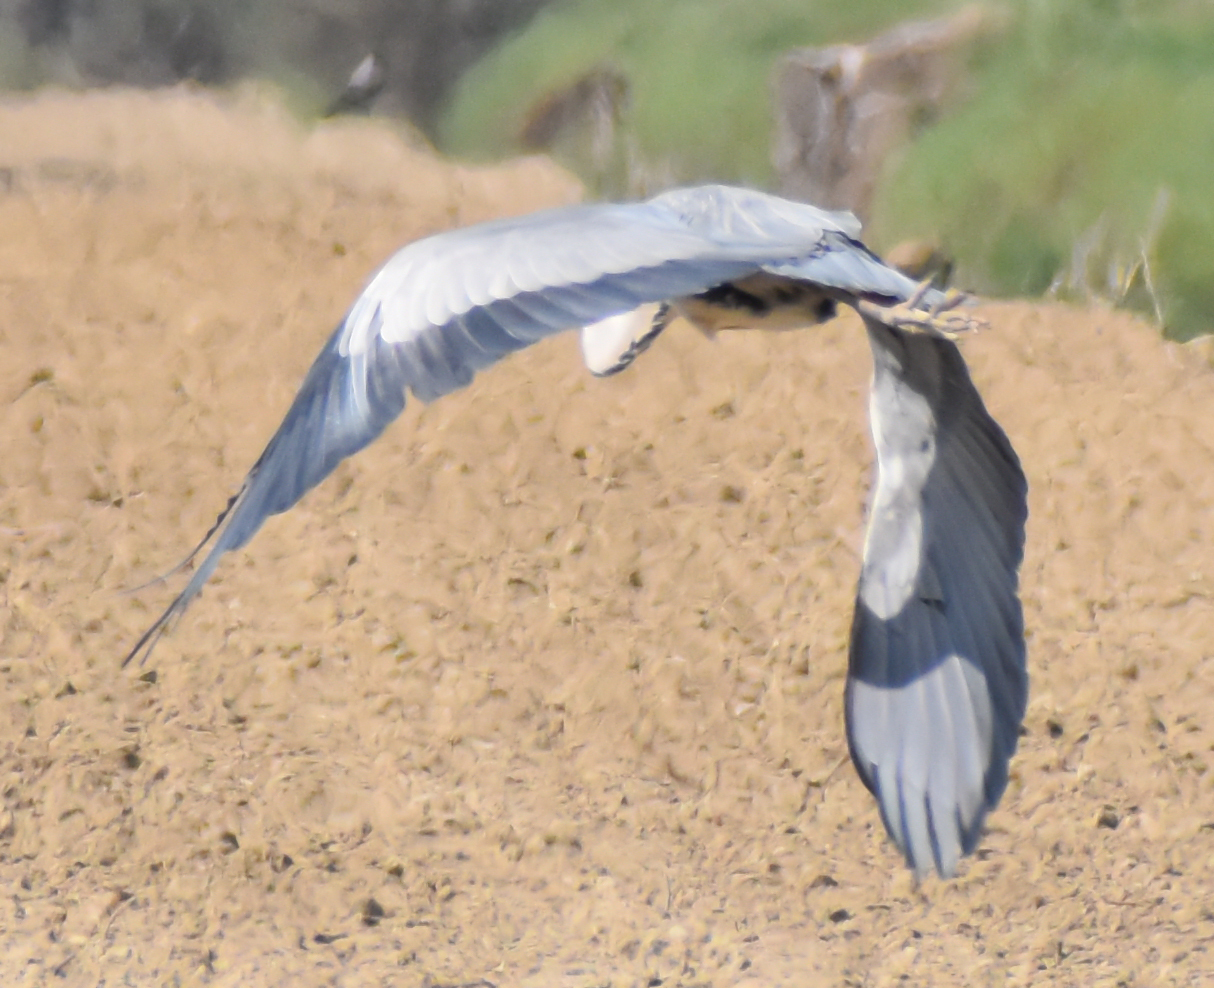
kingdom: Animalia
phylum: Chordata
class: Aves
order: Pelecaniformes
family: Ardeidae
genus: Ardea
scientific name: Ardea cinerea
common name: Grey heron
